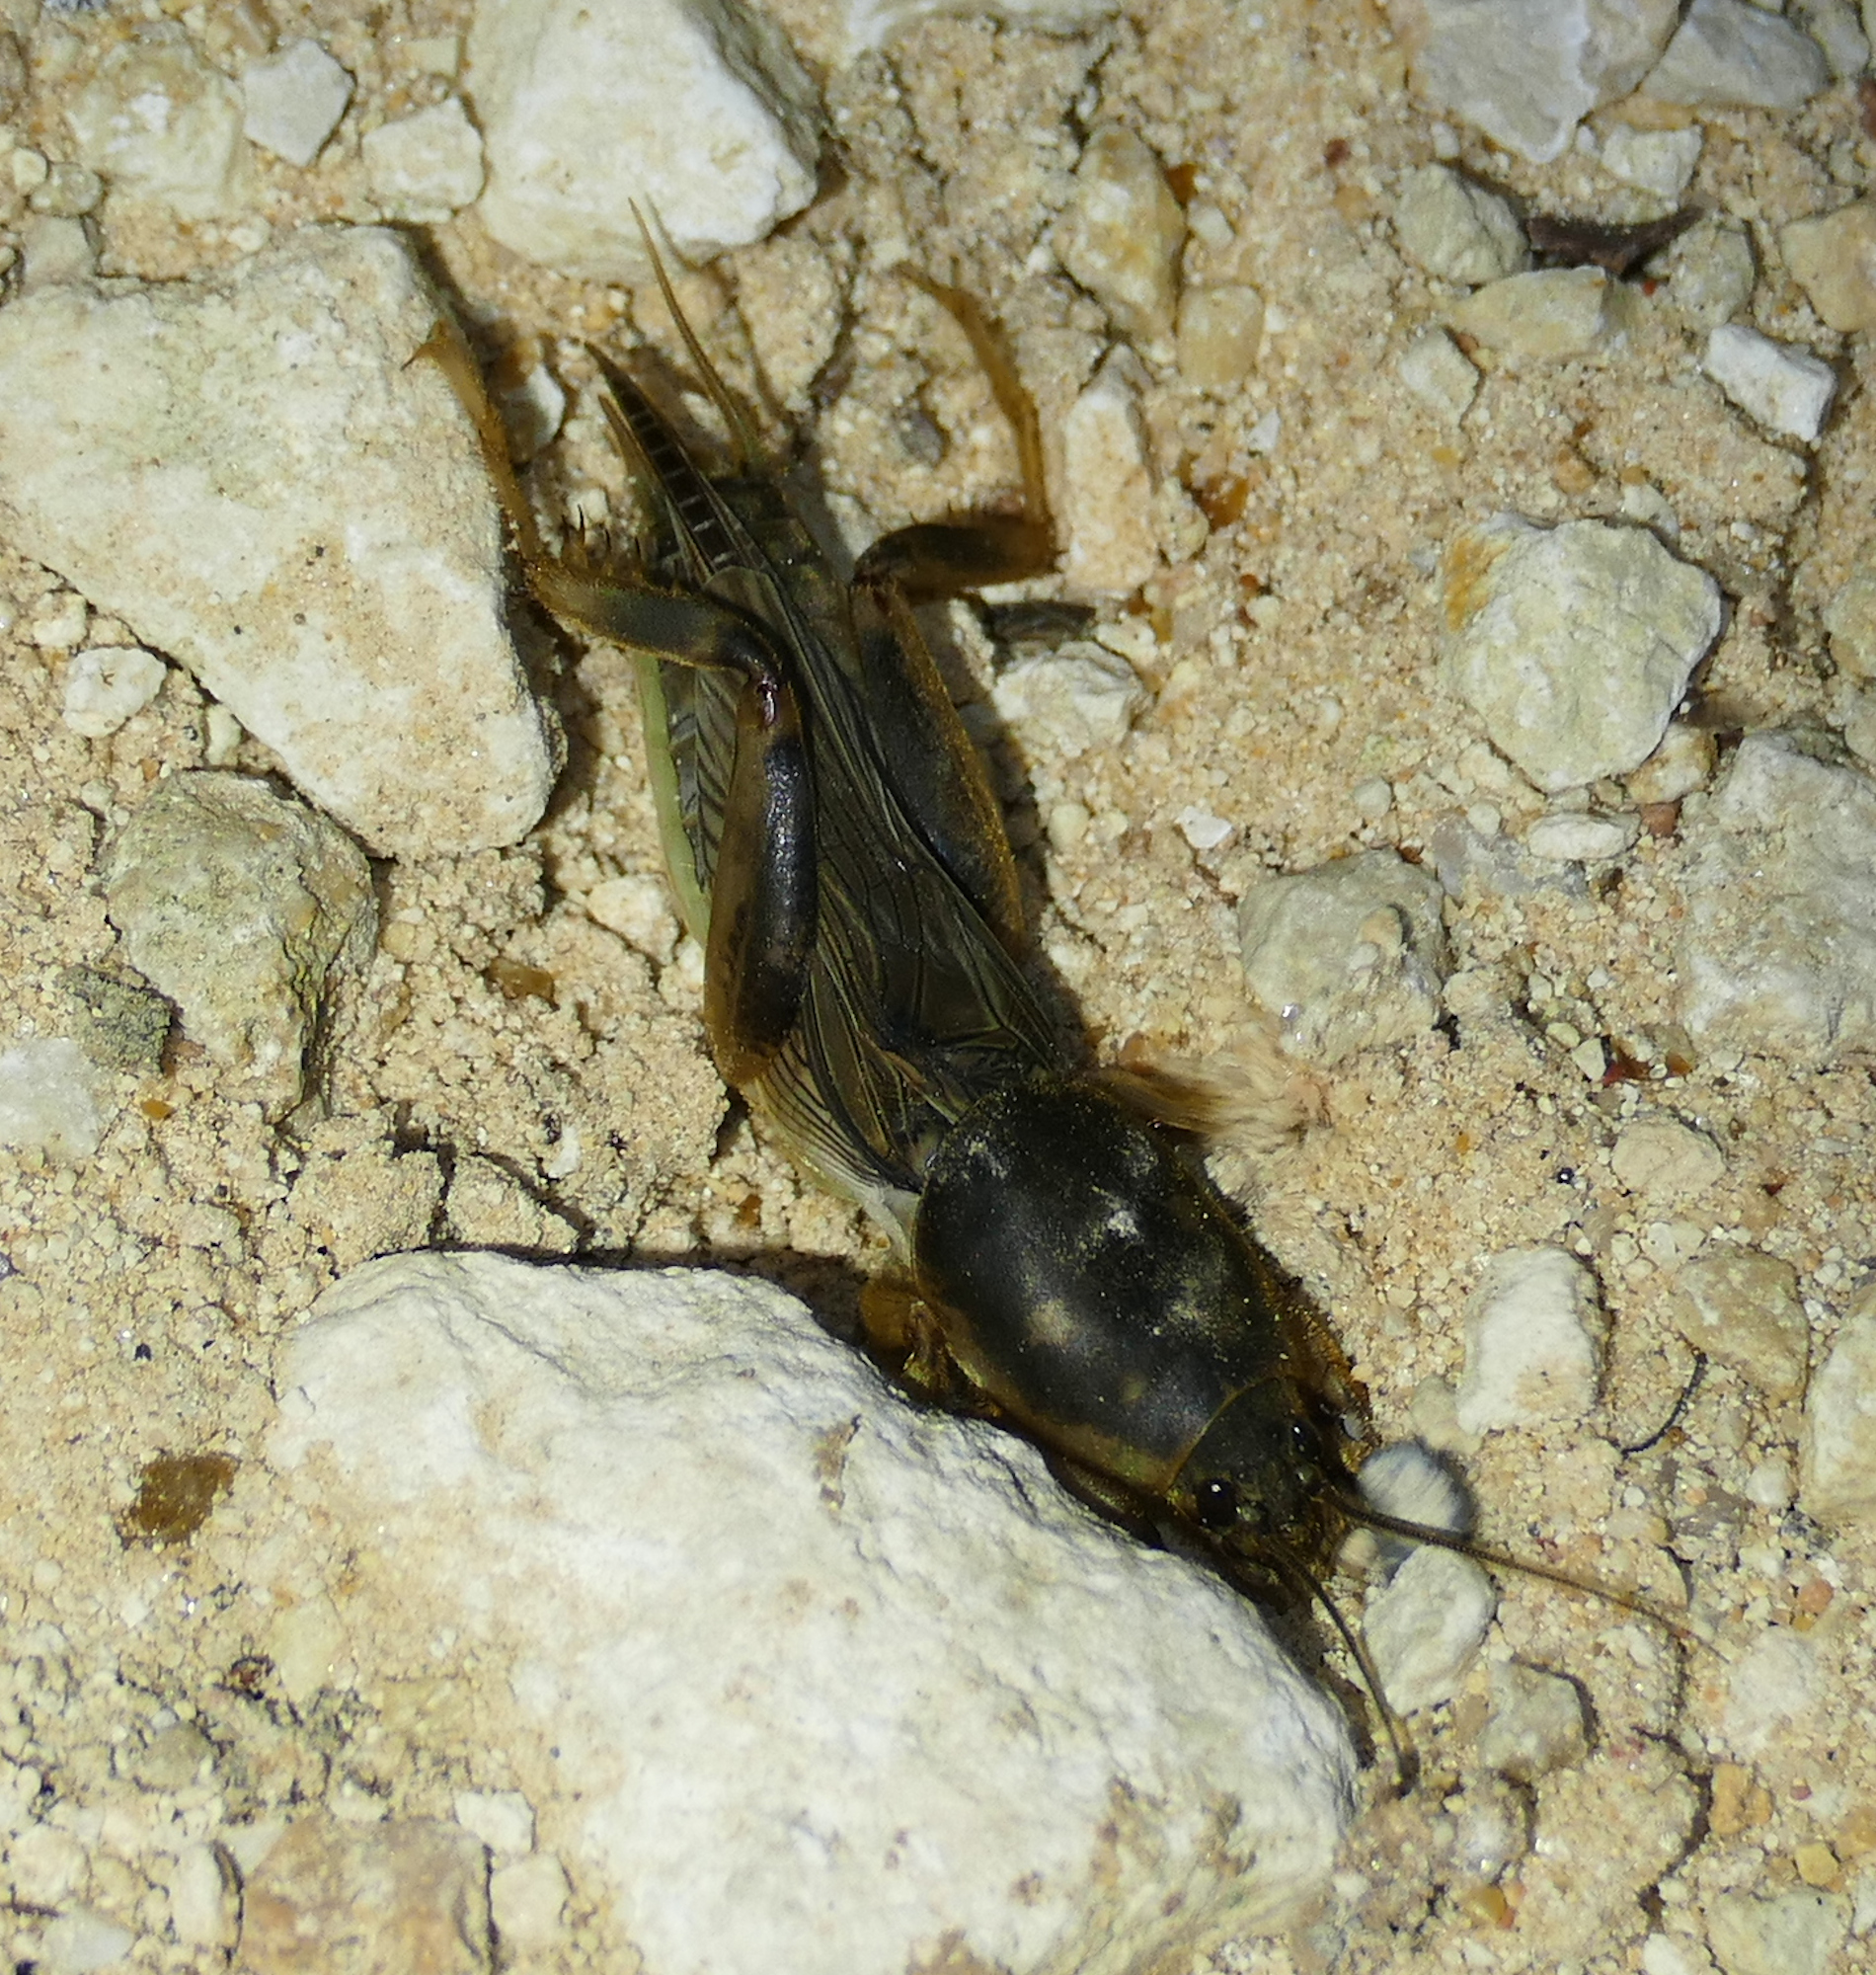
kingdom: Animalia
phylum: Arthropoda
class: Insecta
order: Orthoptera
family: Gryllotalpidae
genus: Neoscapteriscus
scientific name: Neoscapteriscus borellii
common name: Southern mole cricket
